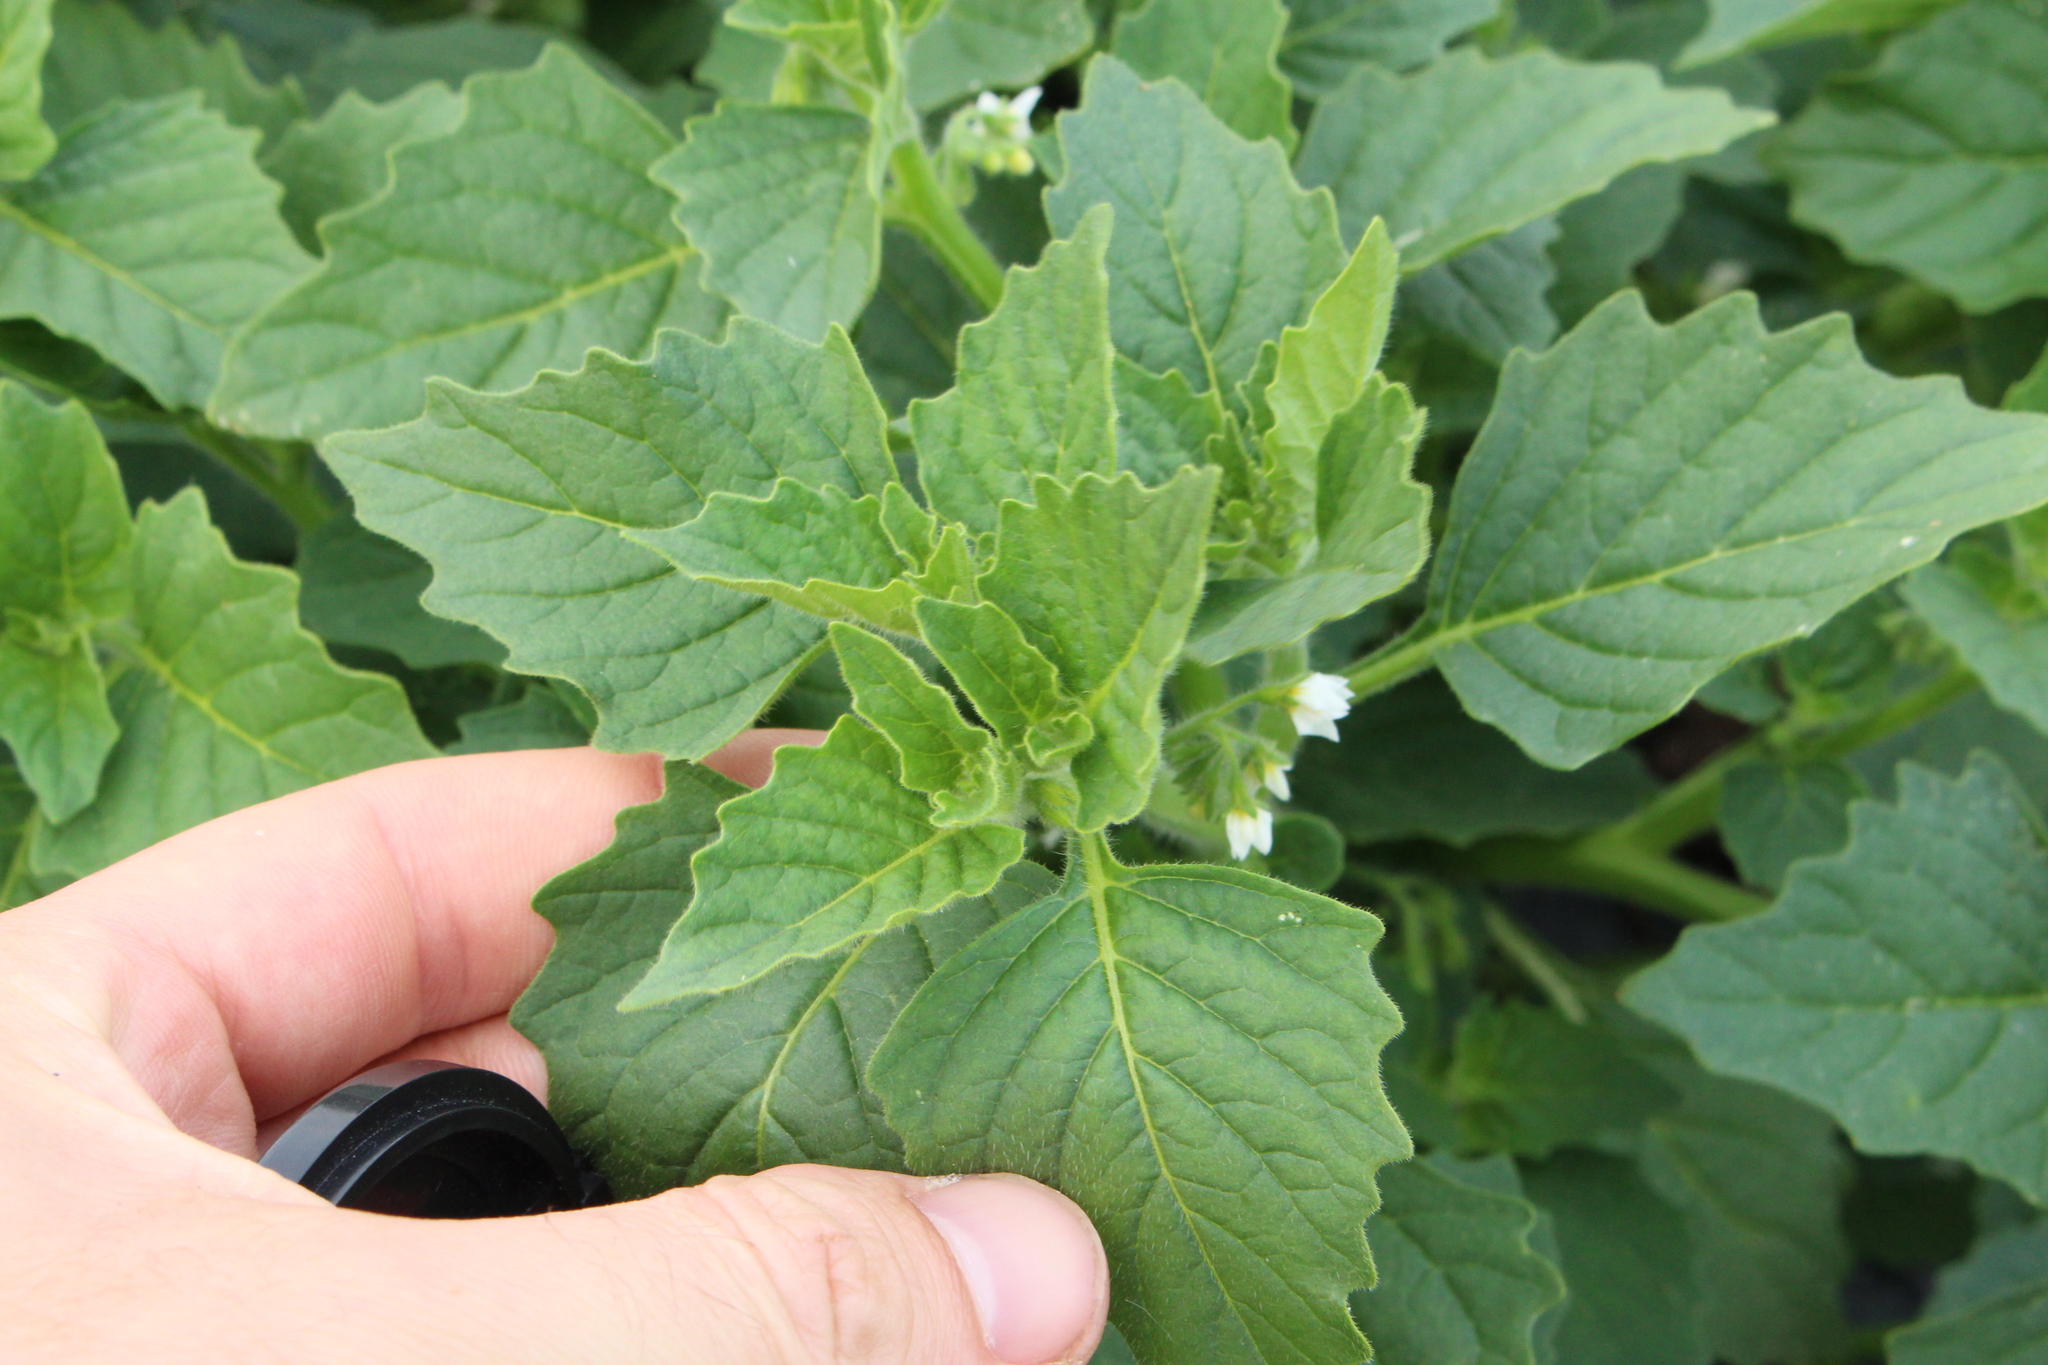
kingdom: Plantae
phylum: Tracheophyta
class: Magnoliopsida
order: Solanales
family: Solanaceae
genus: Solanum
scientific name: Solanum nitidibaccatum
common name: Hairy nightshade
